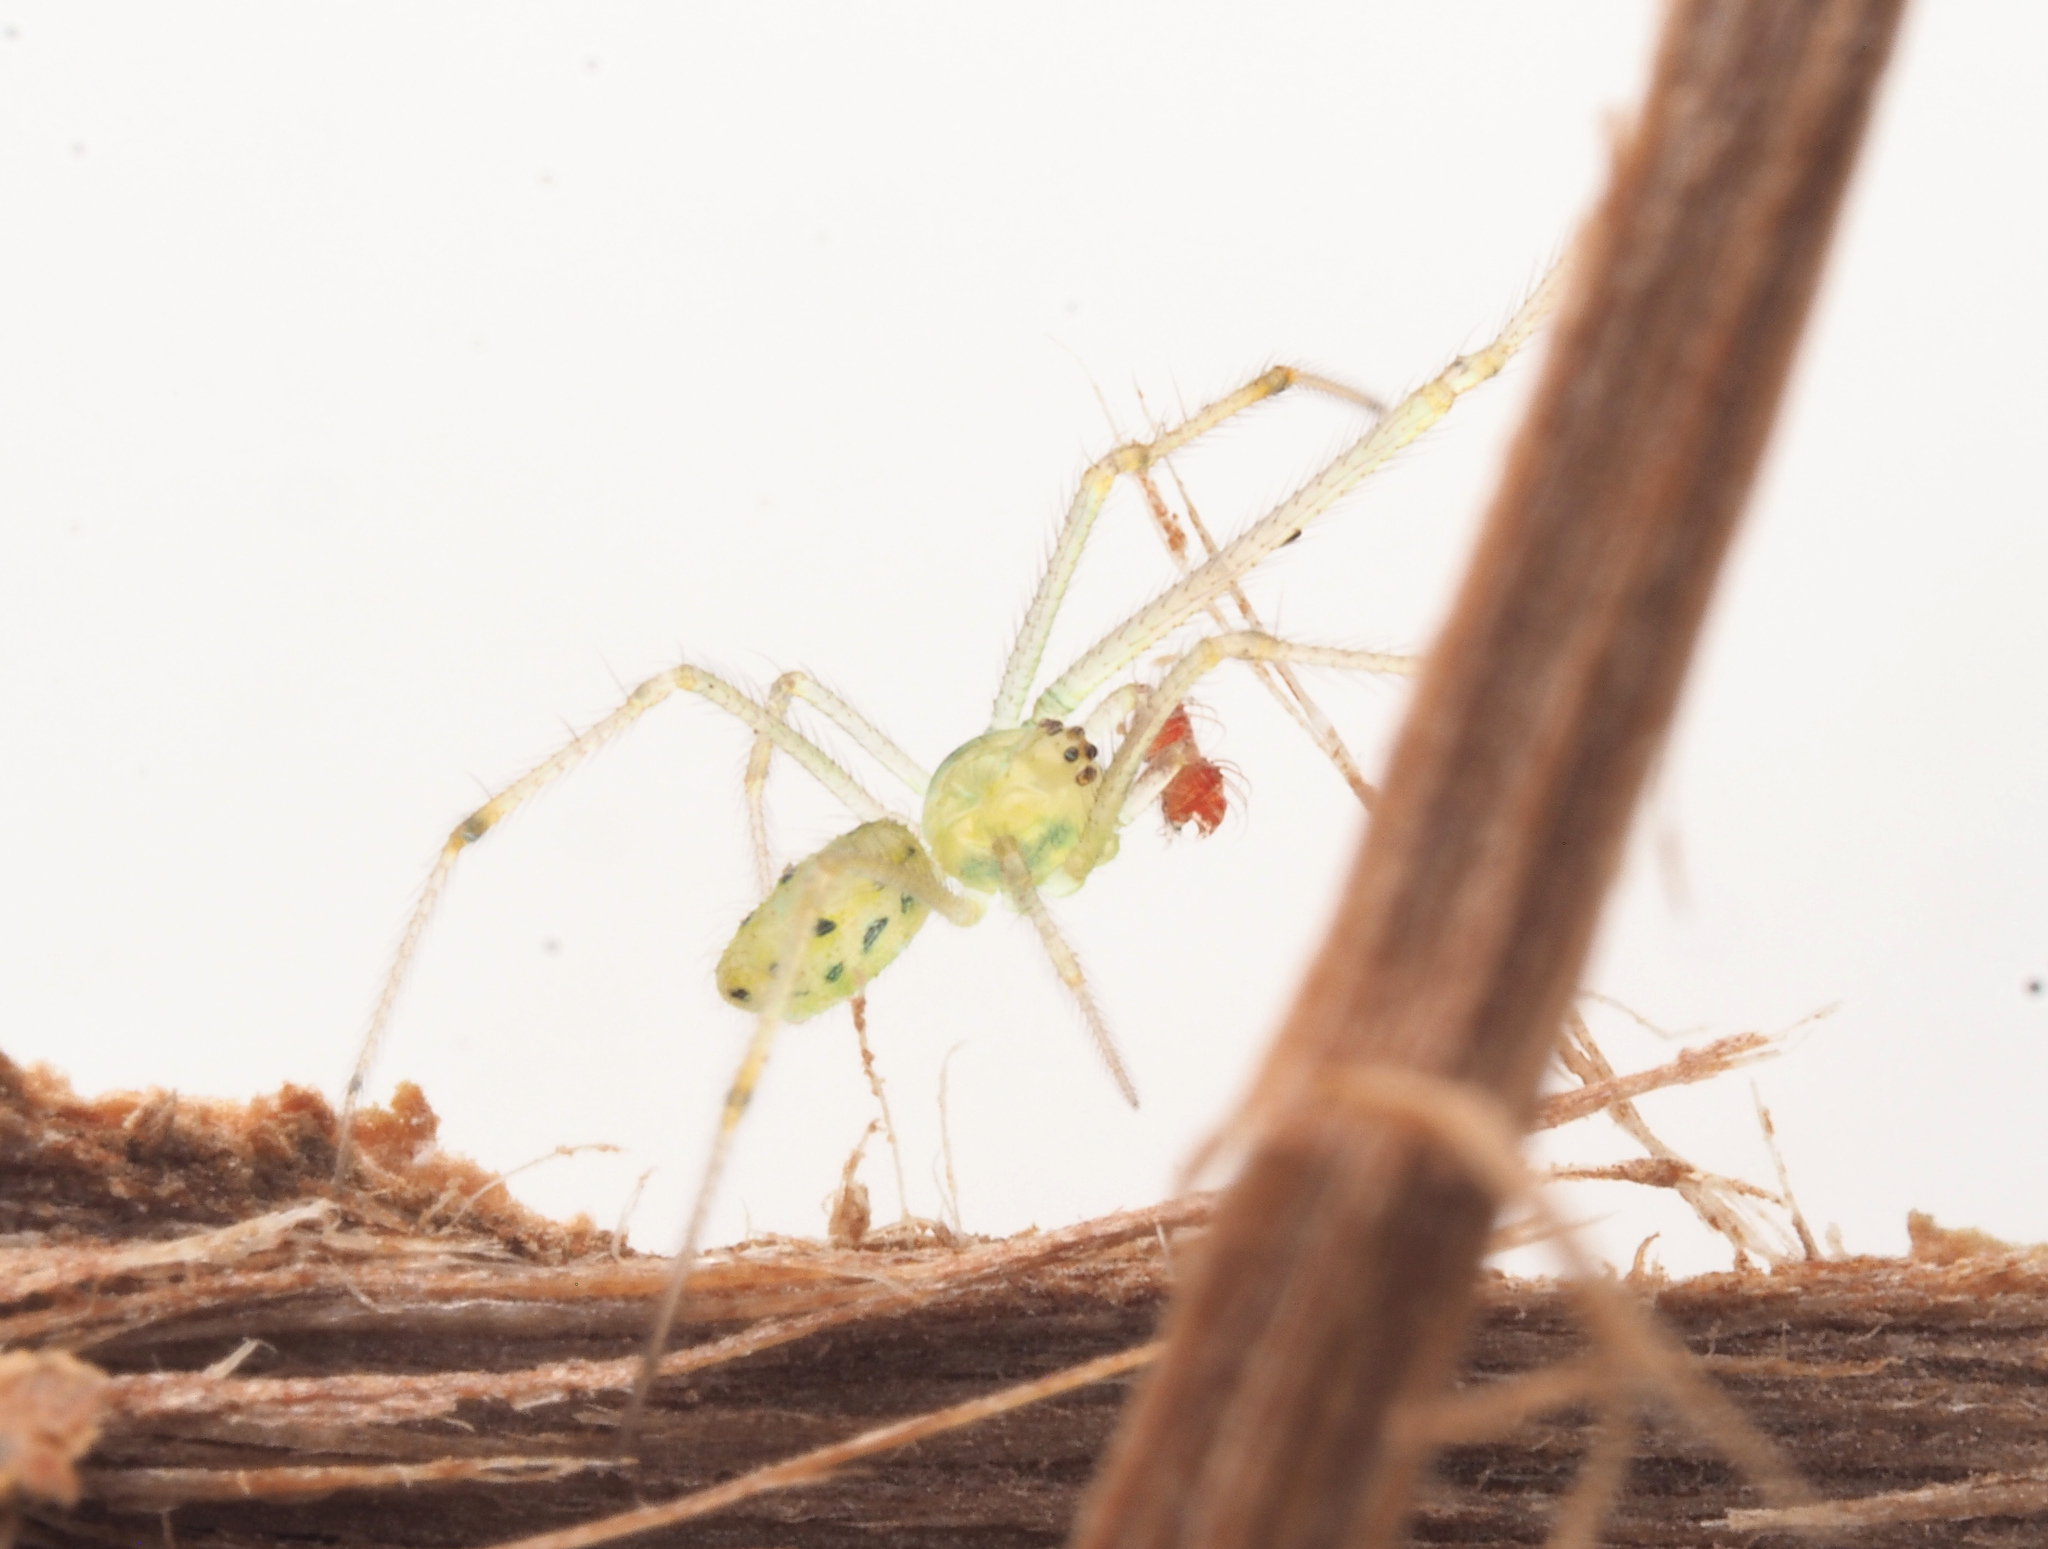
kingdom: Animalia
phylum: Arthropoda
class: Arachnida
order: Araneae
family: Theridiidae
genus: Chrysso
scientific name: Chrysso
